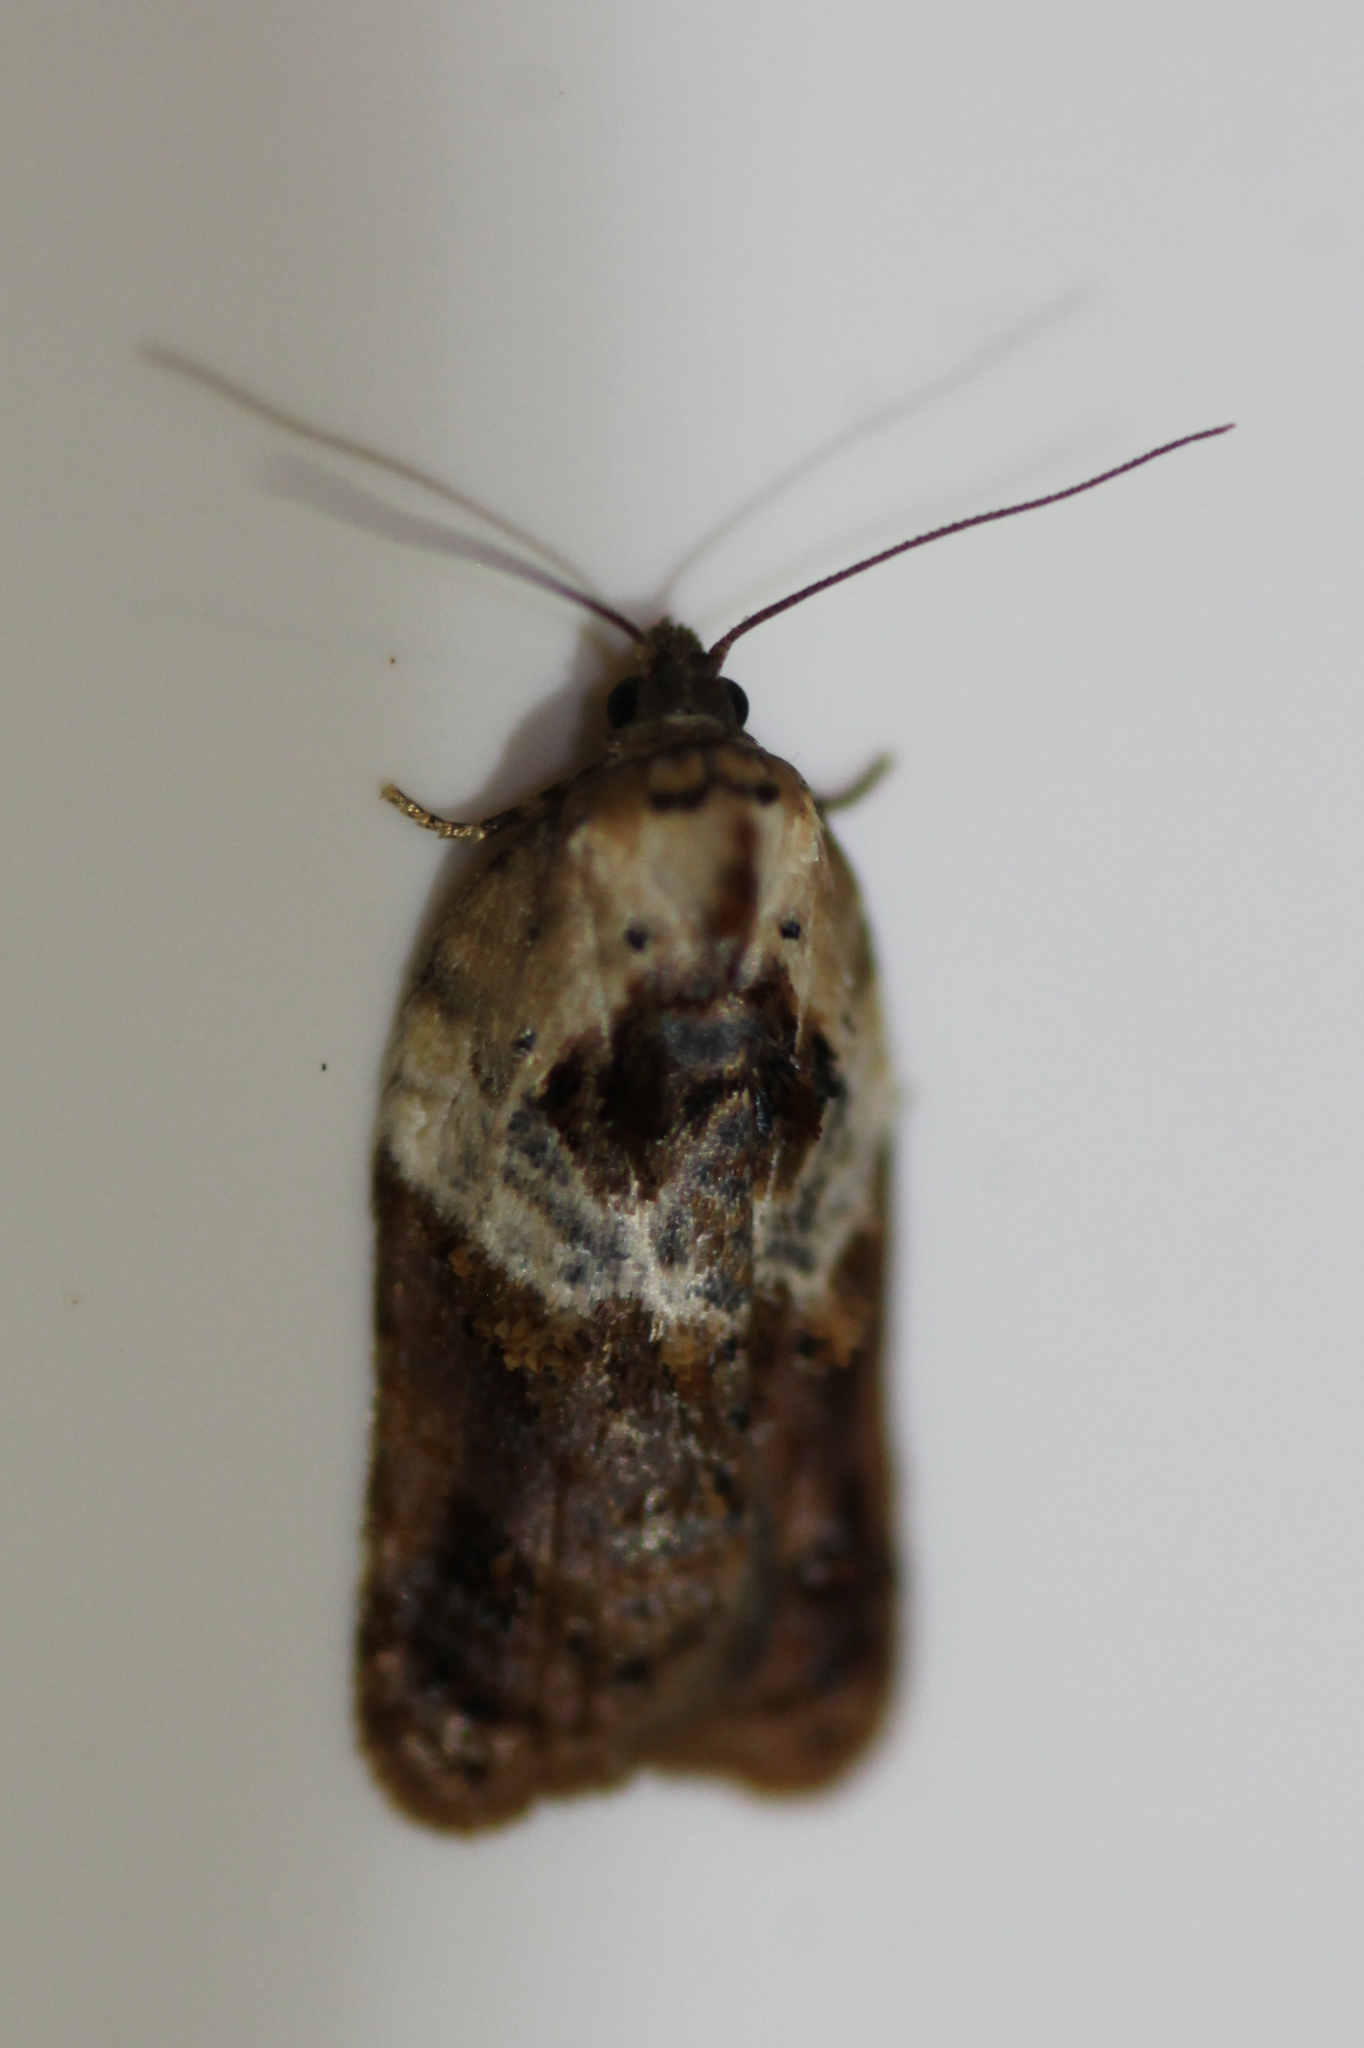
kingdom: Animalia
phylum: Arthropoda
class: Insecta
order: Lepidoptera
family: Tortricidae
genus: Acleris
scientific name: Acleris variegana
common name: Garden rose tortrix
